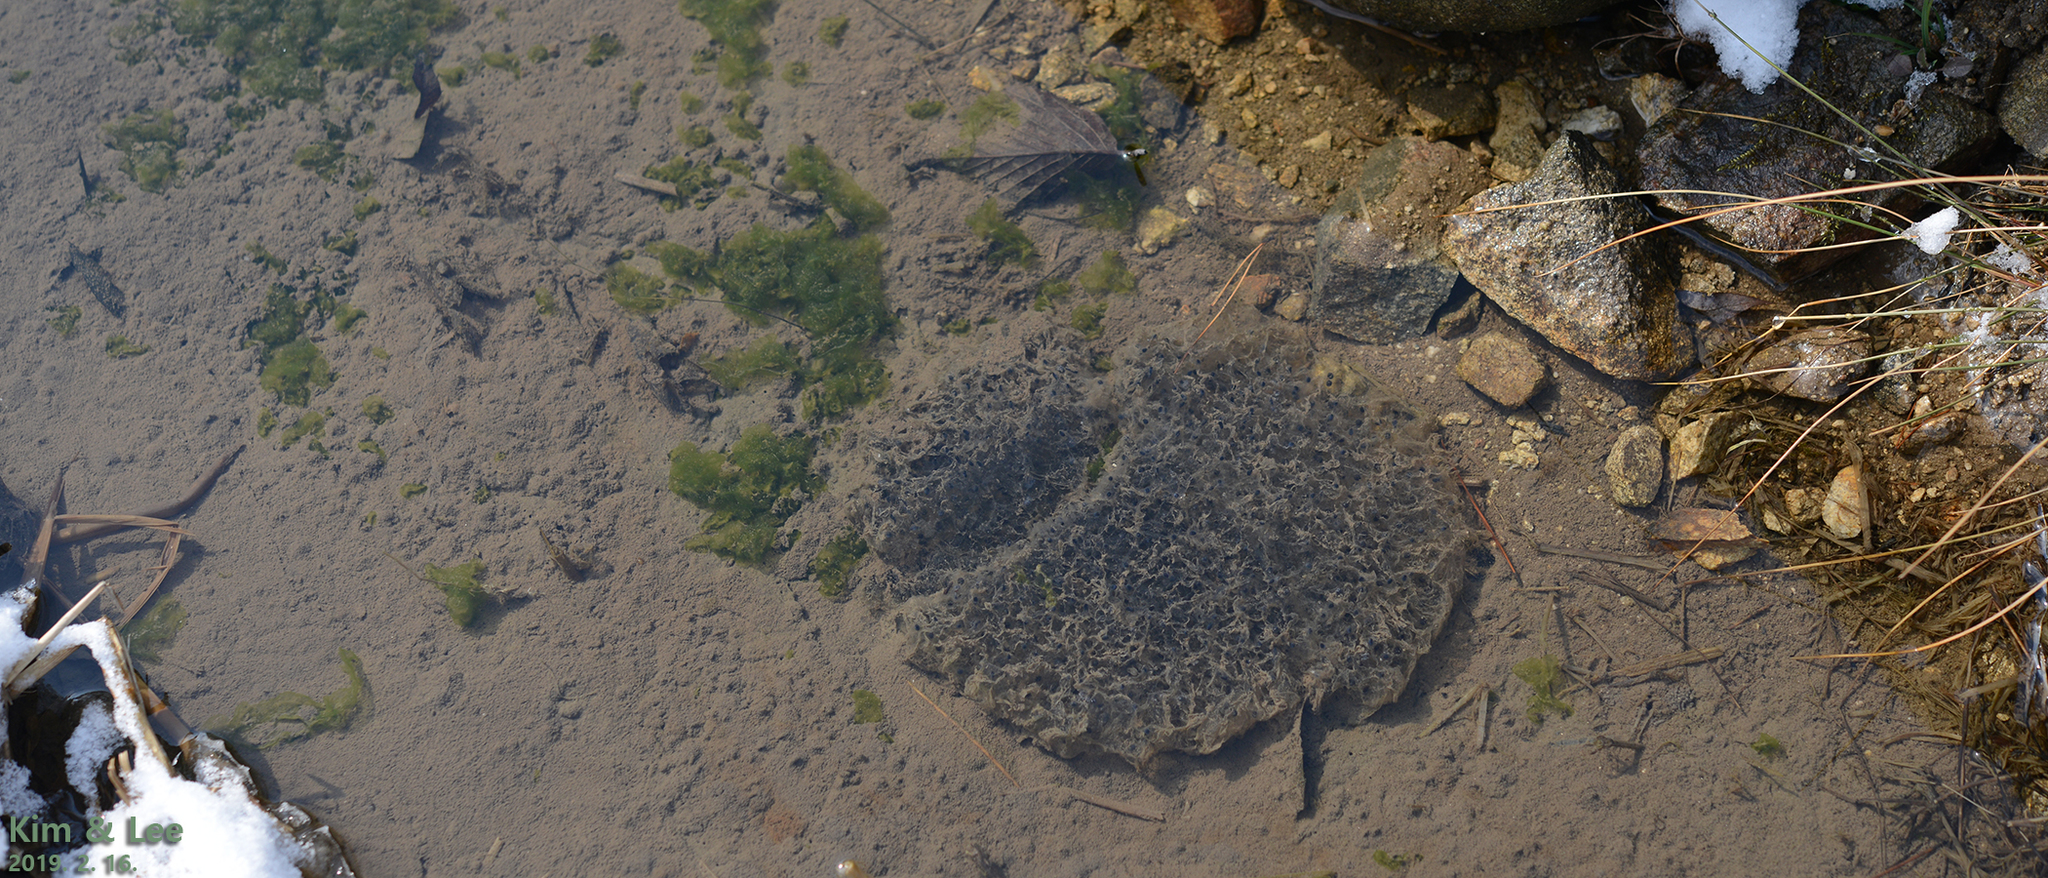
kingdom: Animalia
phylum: Chordata
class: Amphibia
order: Anura
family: Ranidae
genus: Rana
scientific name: Rana uenoi
